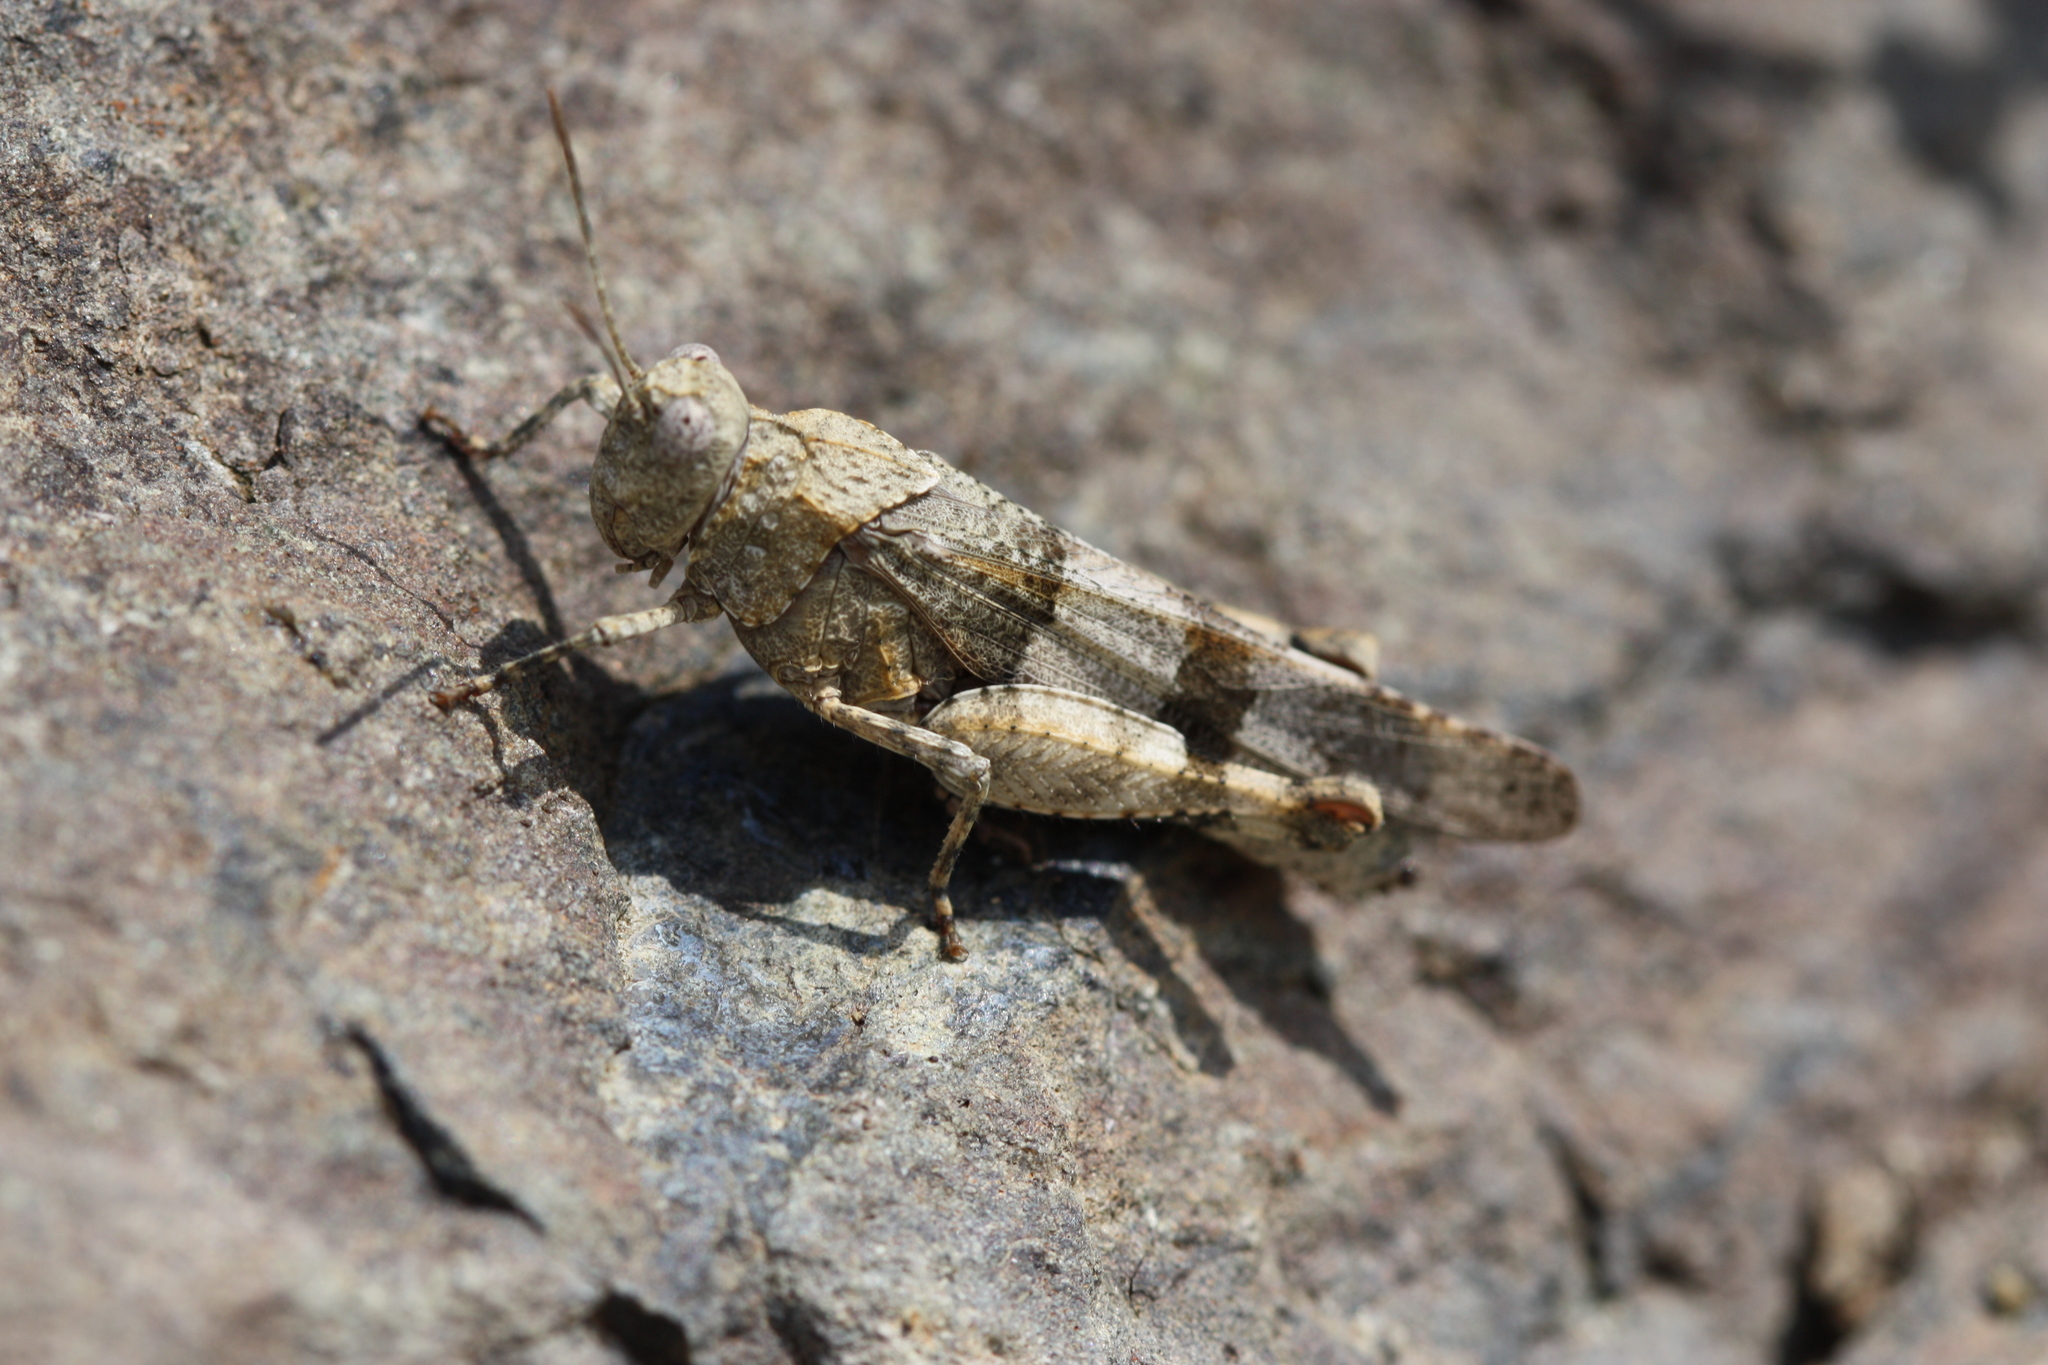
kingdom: Animalia
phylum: Arthropoda
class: Insecta
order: Orthoptera
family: Acrididae
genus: Oedipoda
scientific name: Oedipoda caerulescens
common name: Blue-winged grasshopper
